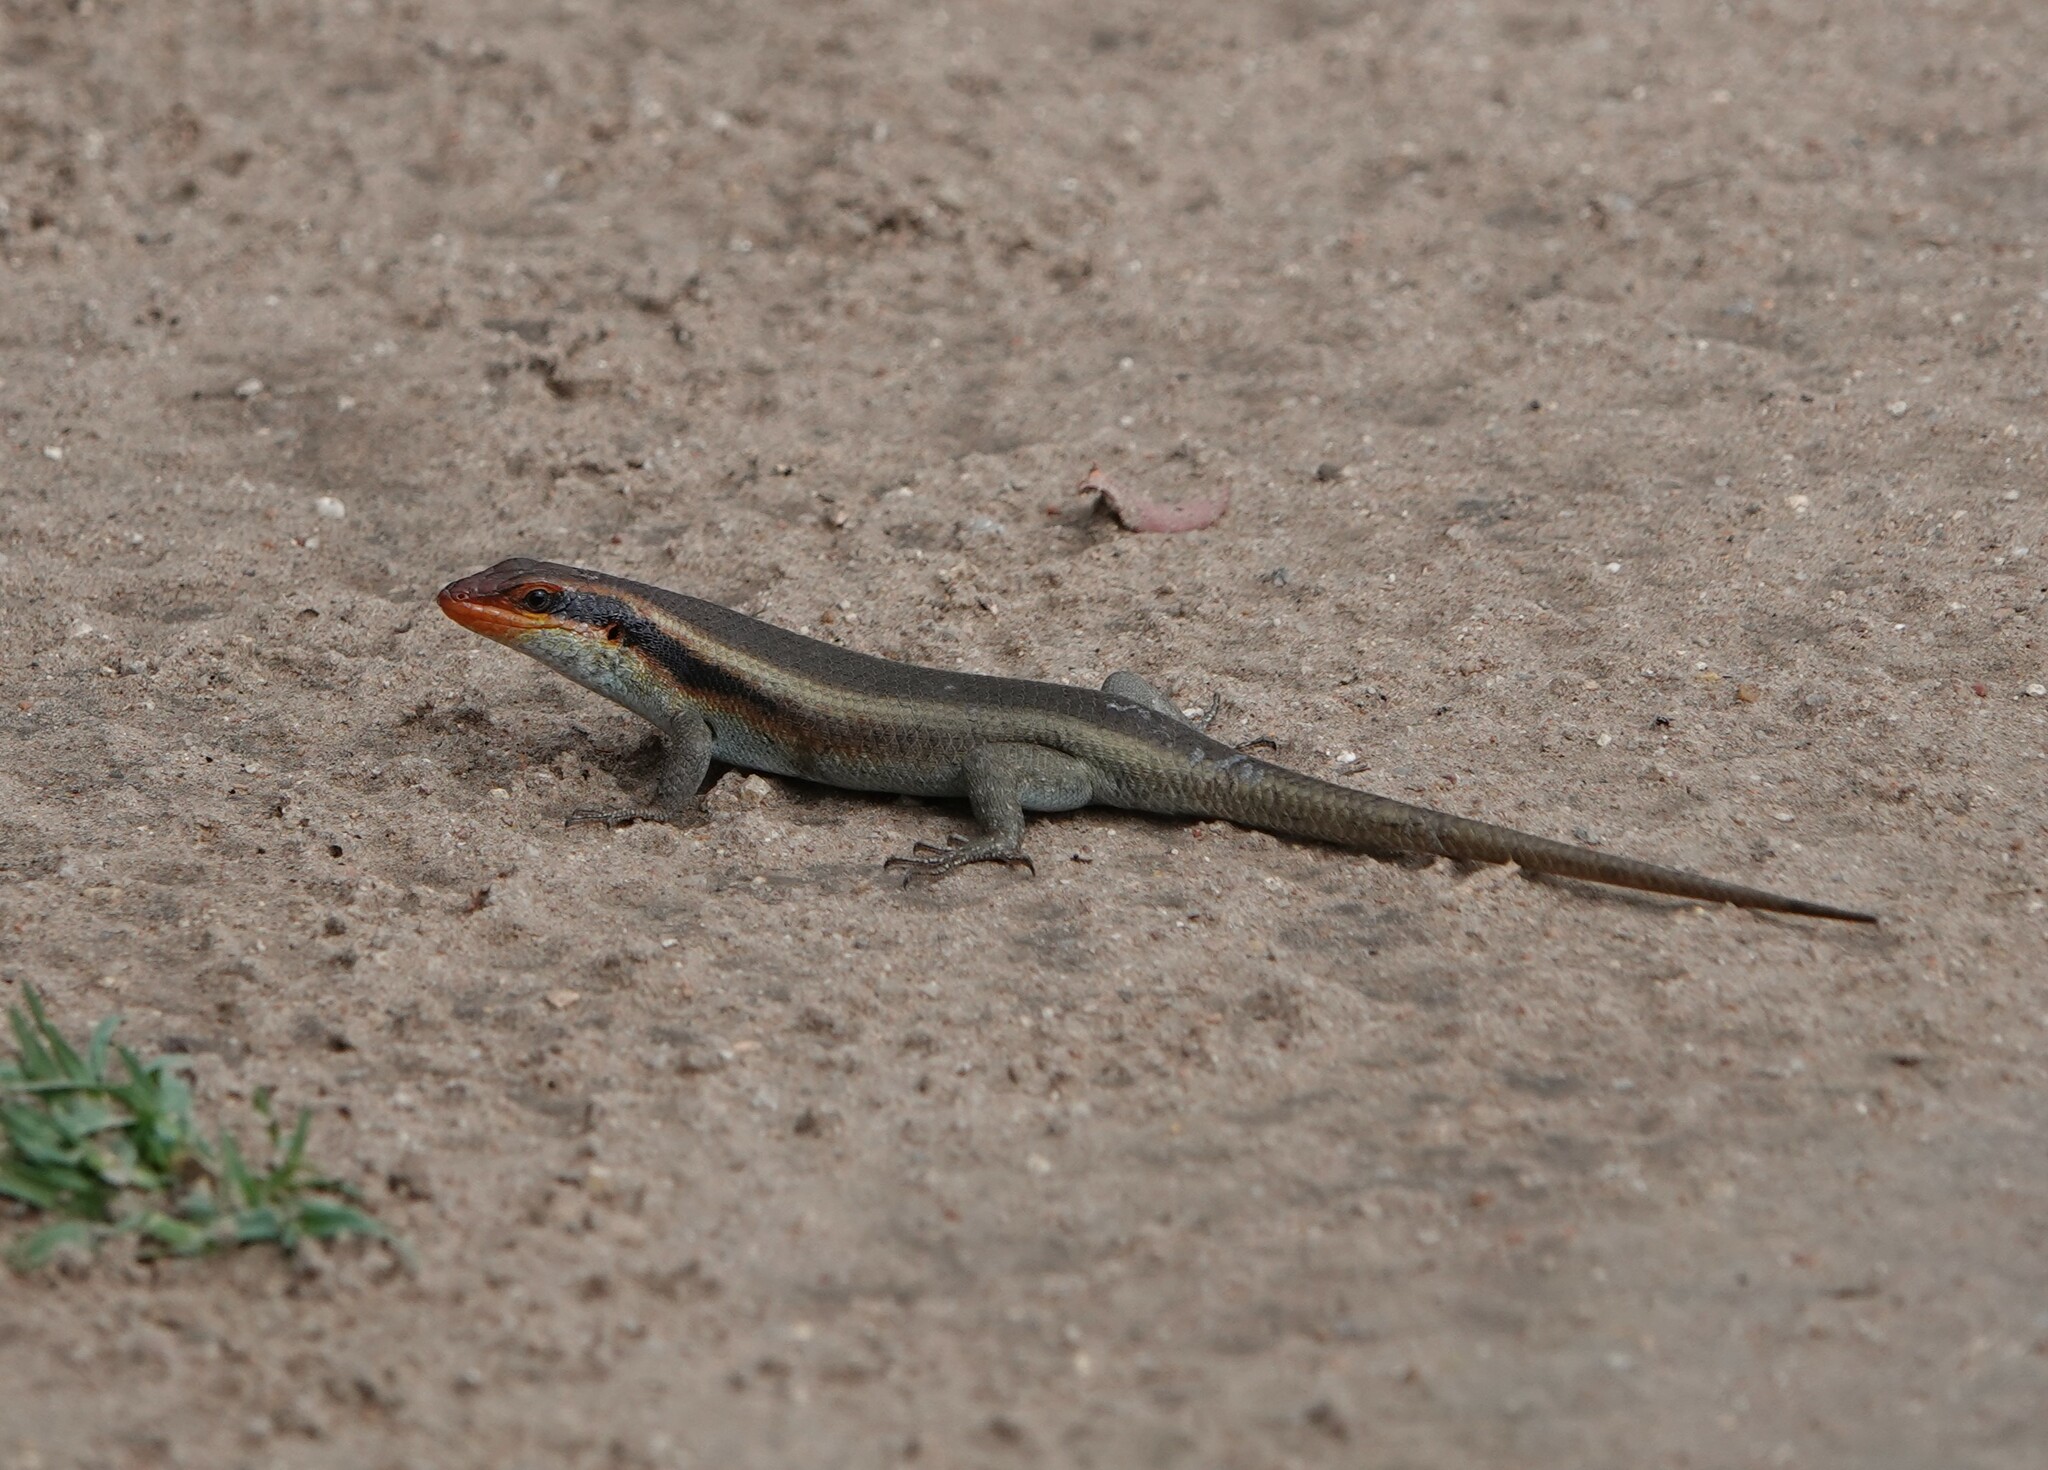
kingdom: Animalia
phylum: Chordata
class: Squamata
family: Scincidae
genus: Trachylepis
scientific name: Trachylepis wahlbergii
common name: Wahlberg’s striped skink
